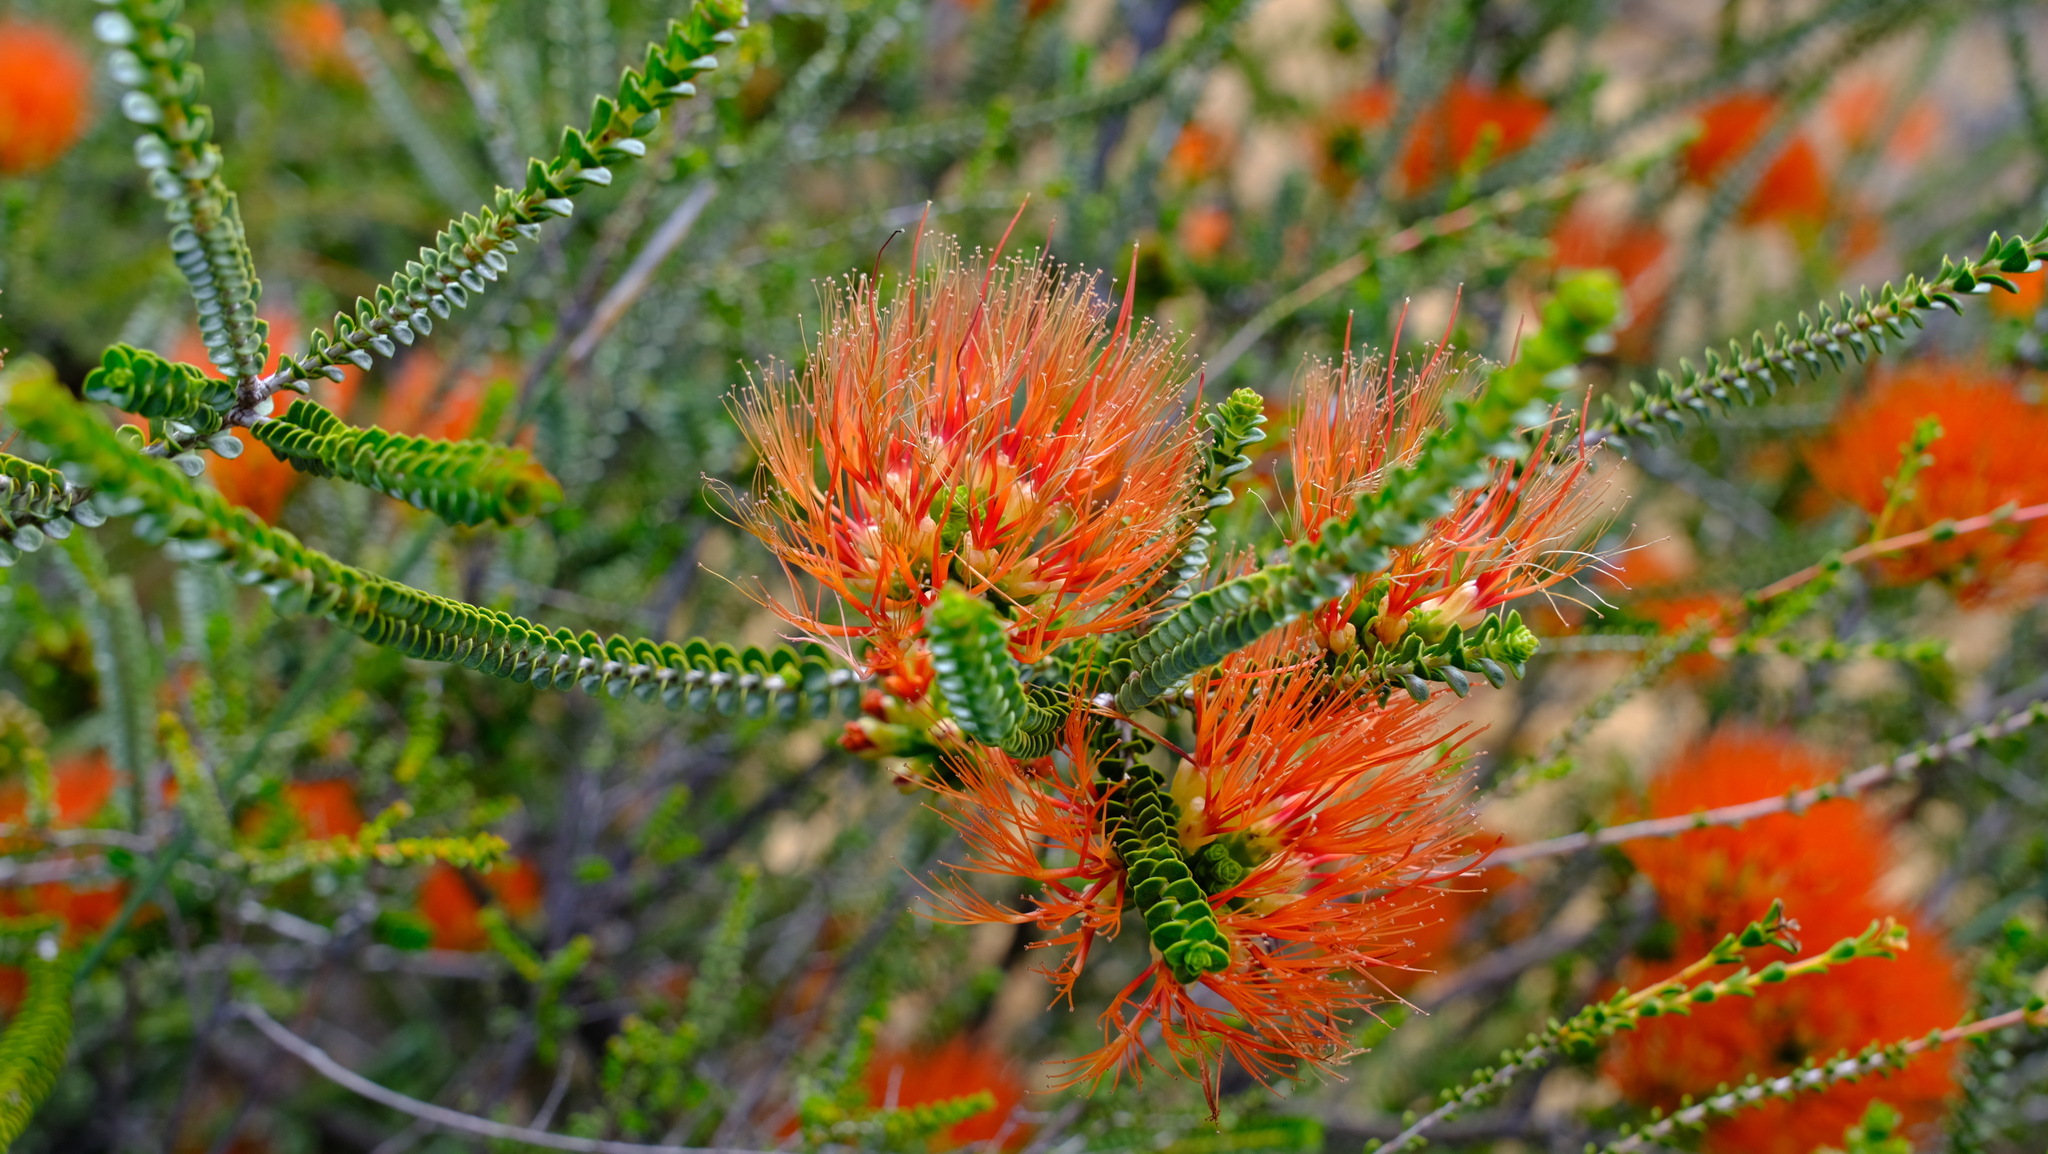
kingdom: Plantae
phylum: Tracheophyta
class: Magnoliopsida
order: Myrtales
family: Myrtaceae
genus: Melaleuca
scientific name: Melaleuca aestiva
